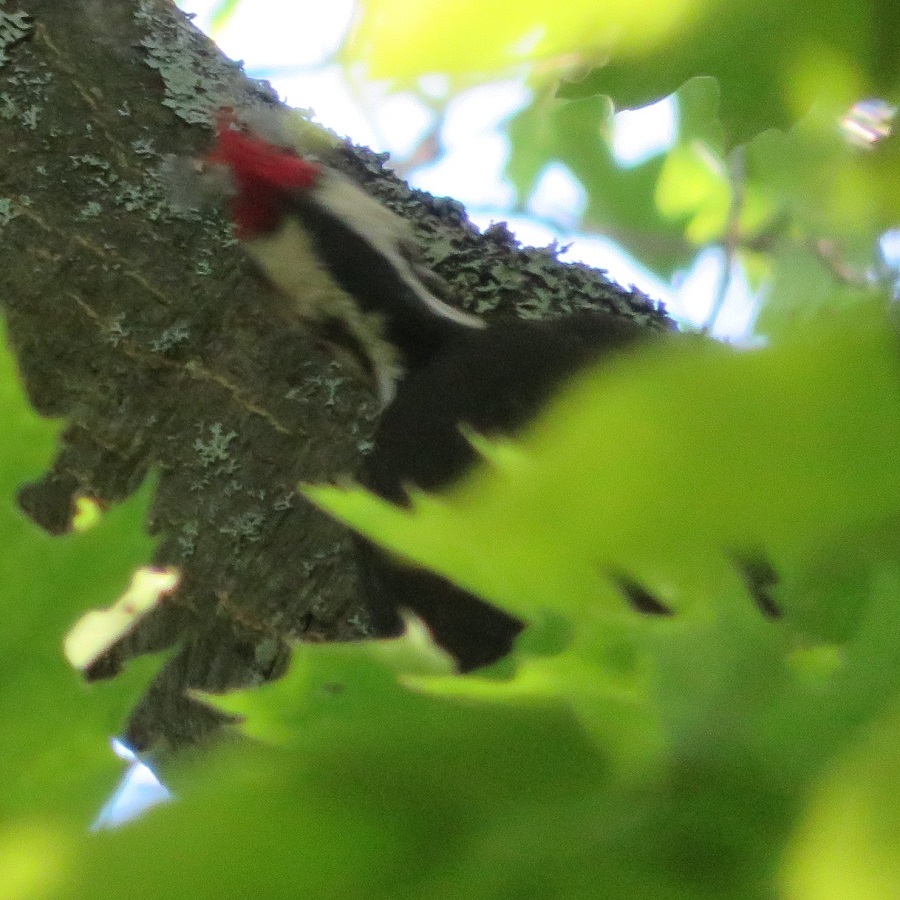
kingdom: Animalia
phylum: Chordata
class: Aves
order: Piciformes
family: Picidae
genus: Dryocopus
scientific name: Dryocopus pileatus
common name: Pileated woodpecker
